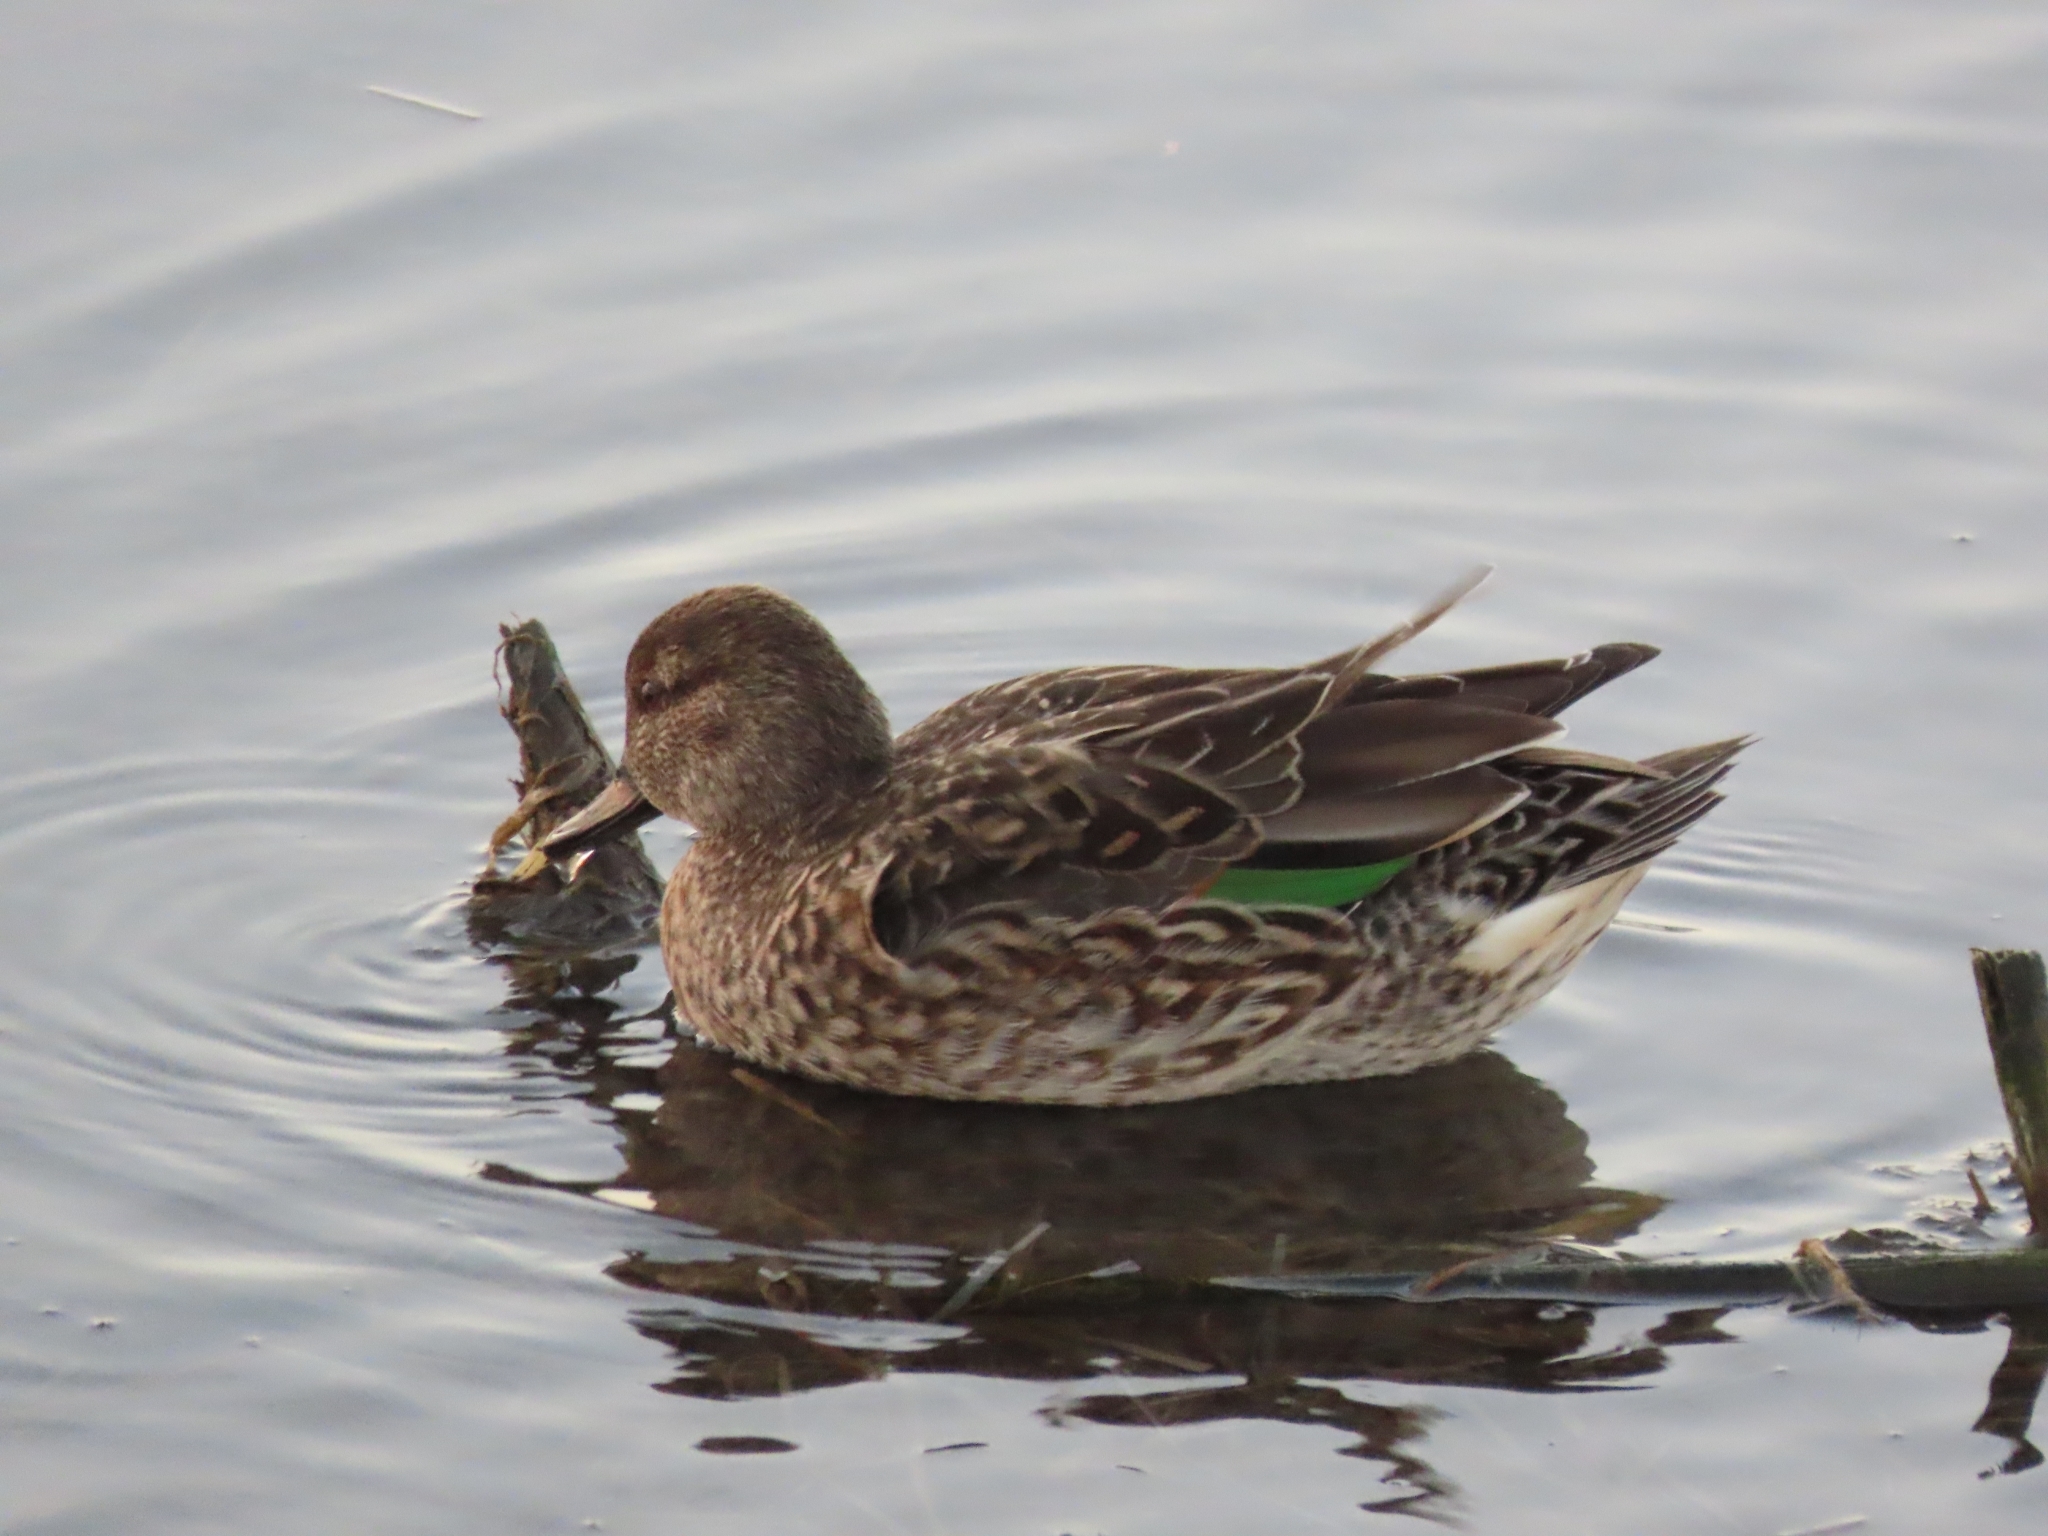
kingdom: Animalia
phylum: Chordata
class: Aves
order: Anseriformes
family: Anatidae
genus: Anas
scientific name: Anas crecca
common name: Eurasian teal
